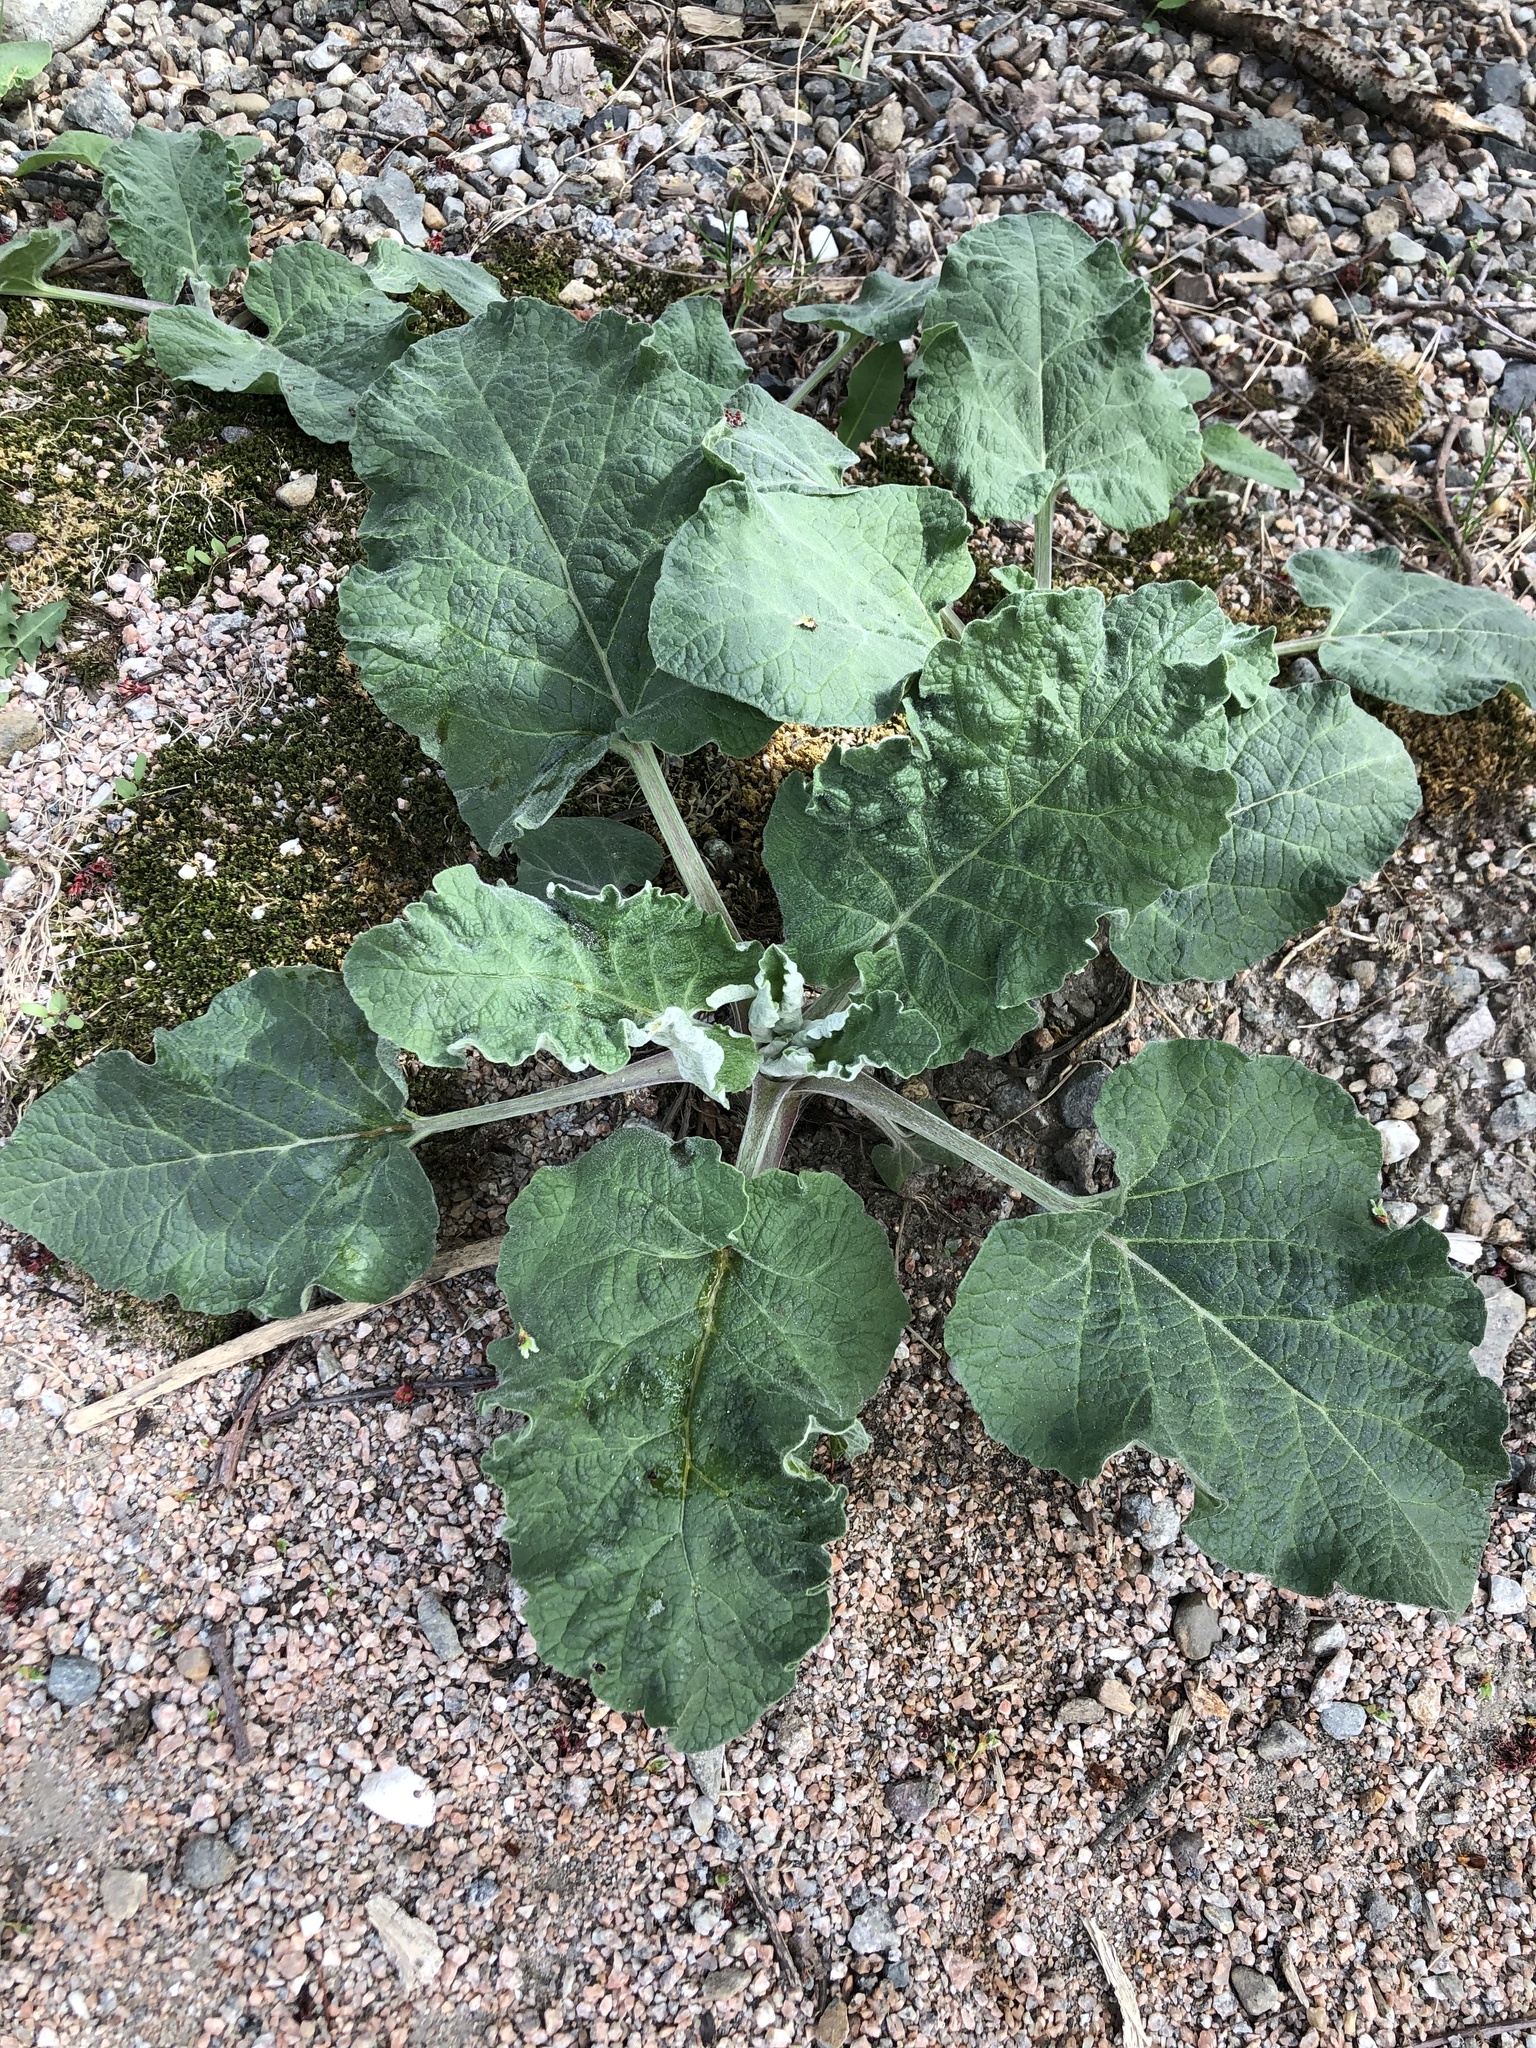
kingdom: Plantae
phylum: Tracheophyta
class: Magnoliopsida
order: Asterales
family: Asteraceae
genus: Arctium
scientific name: Arctium
